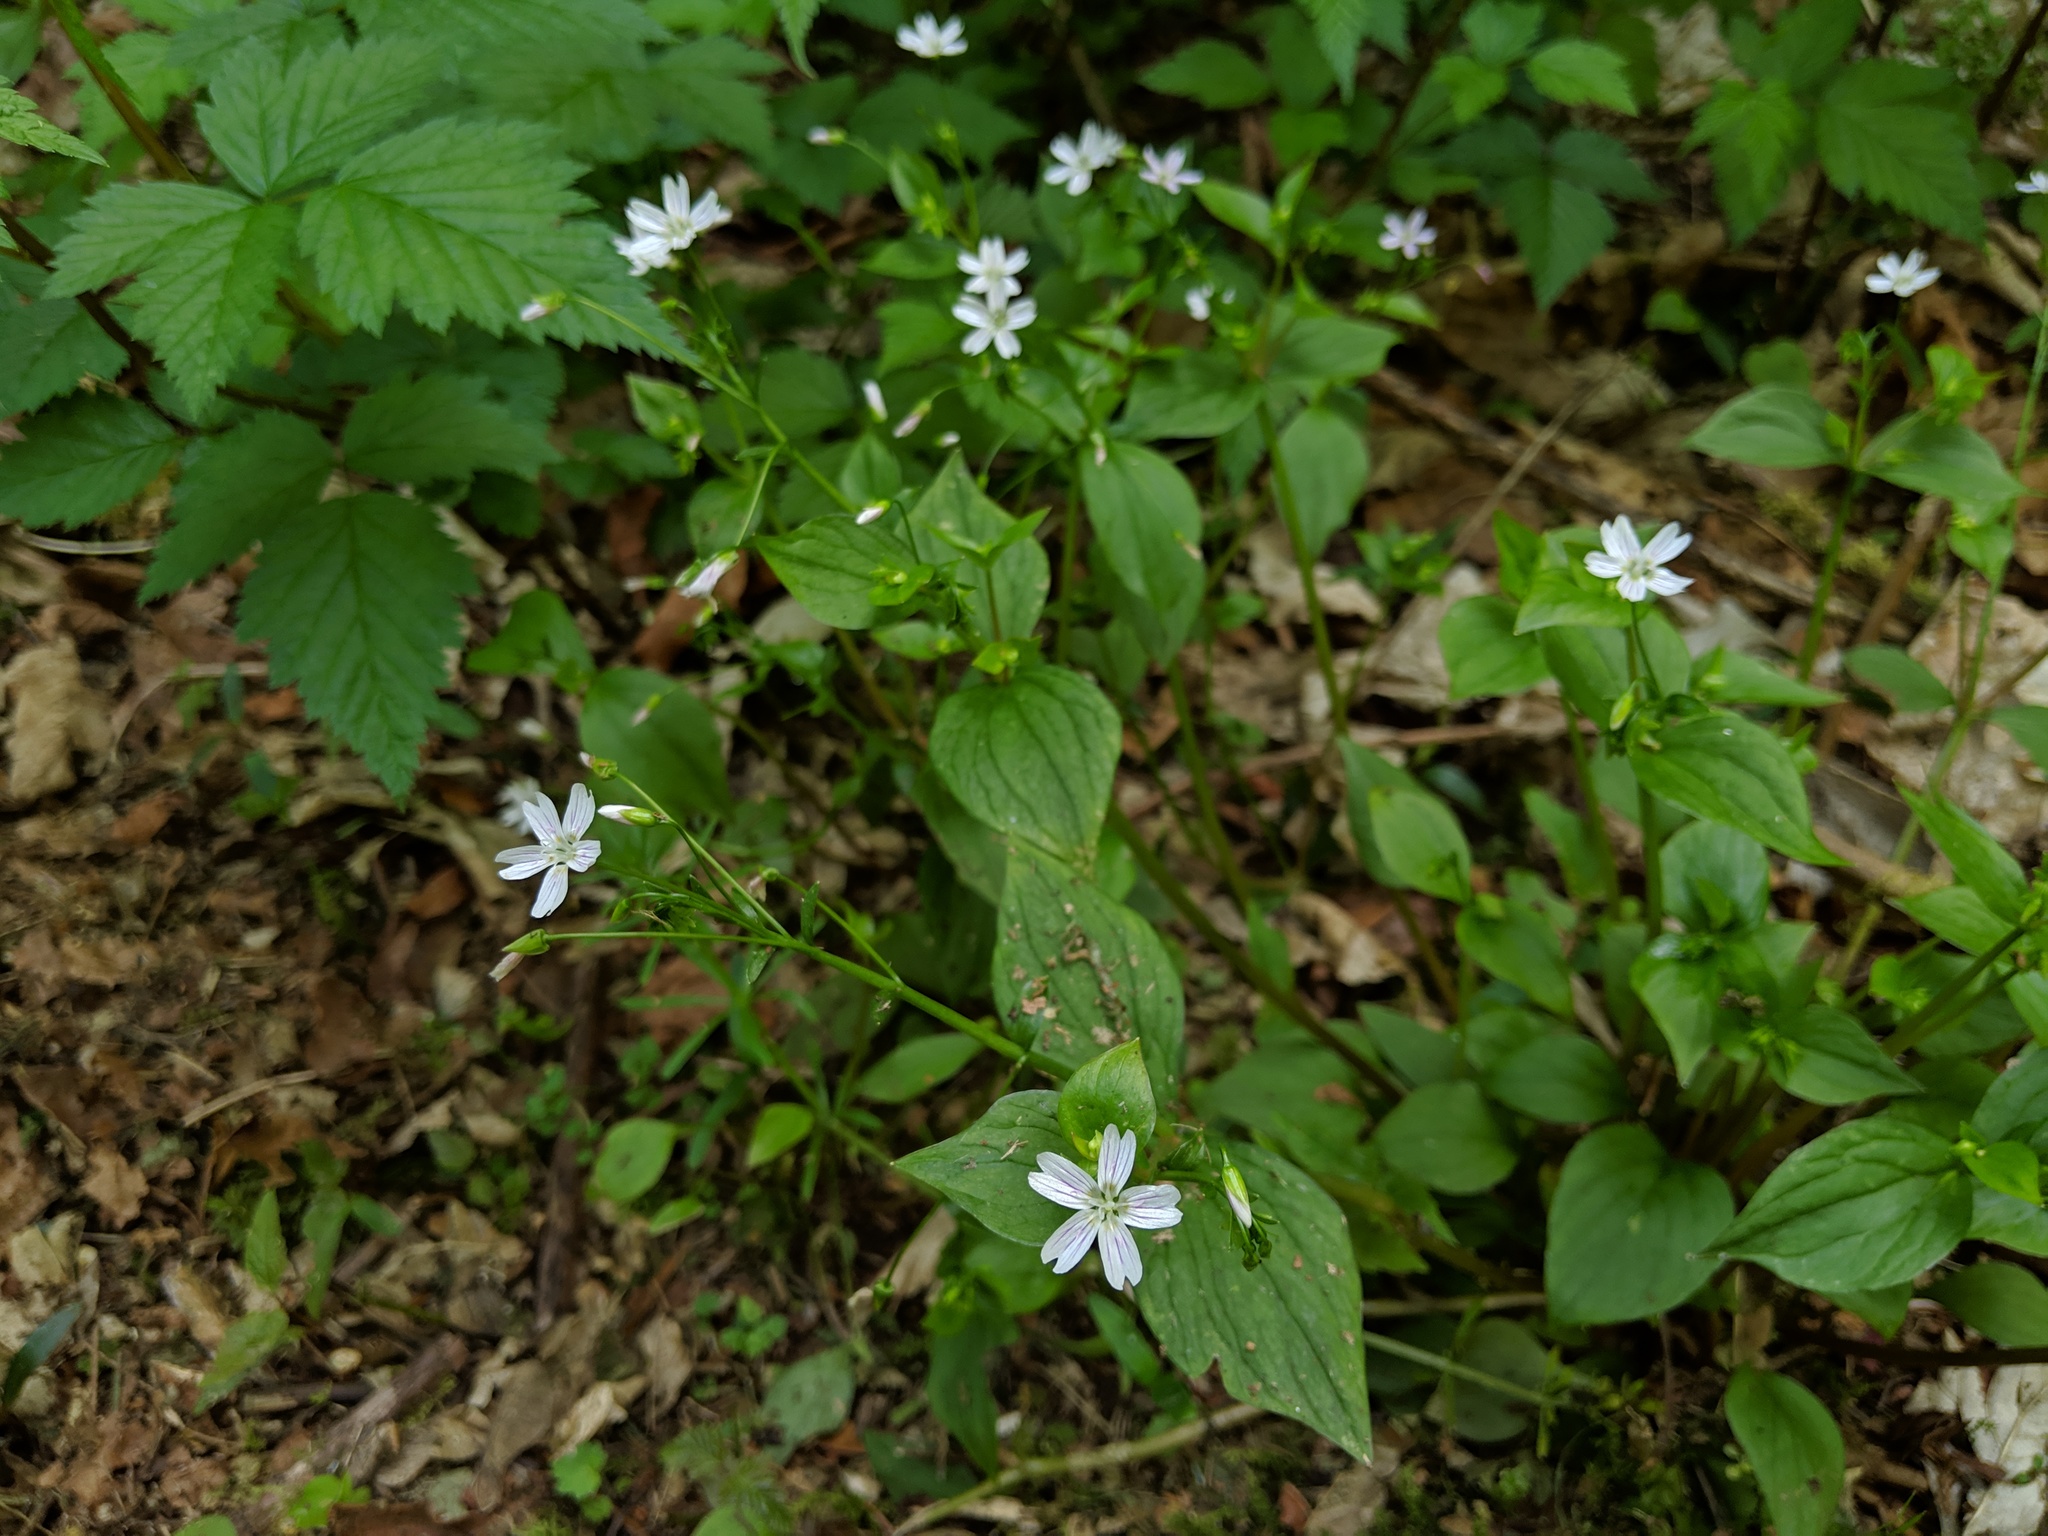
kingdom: Plantae
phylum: Tracheophyta
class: Magnoliopsida
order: Caryophyllales
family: Montiaceae
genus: Claytonia
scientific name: Claytonia sibirica
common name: Pink purslane
